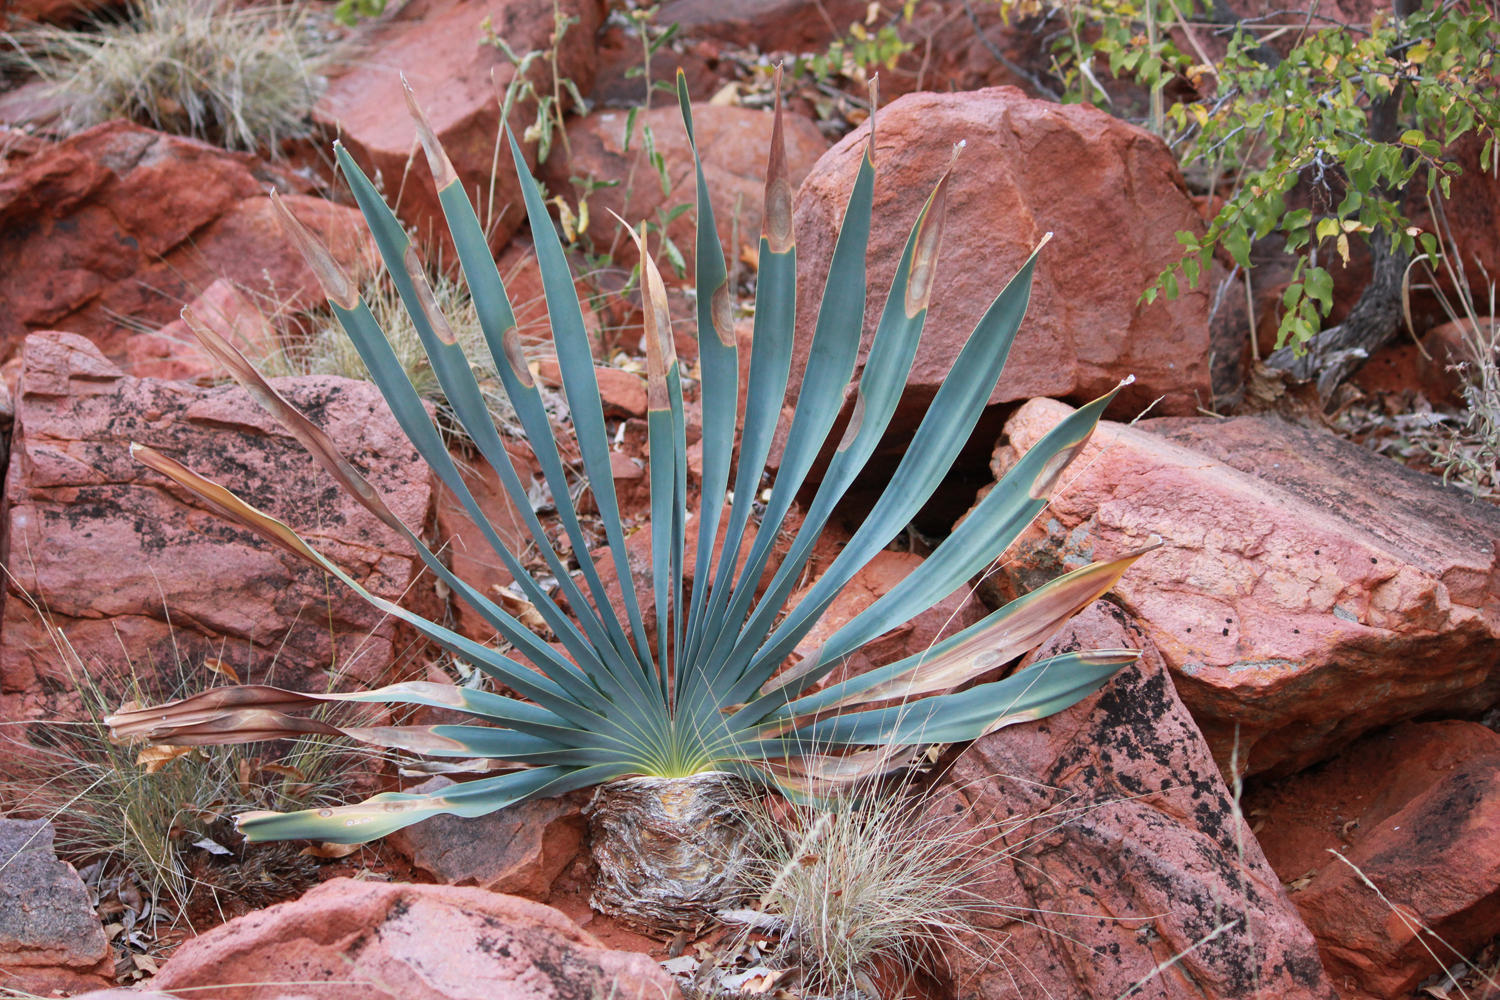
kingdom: Plantae
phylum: Tracheophyta
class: Liliopsida
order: Asparagales
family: Amaryllidaceae
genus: Boophone
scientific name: Boophone disticha
